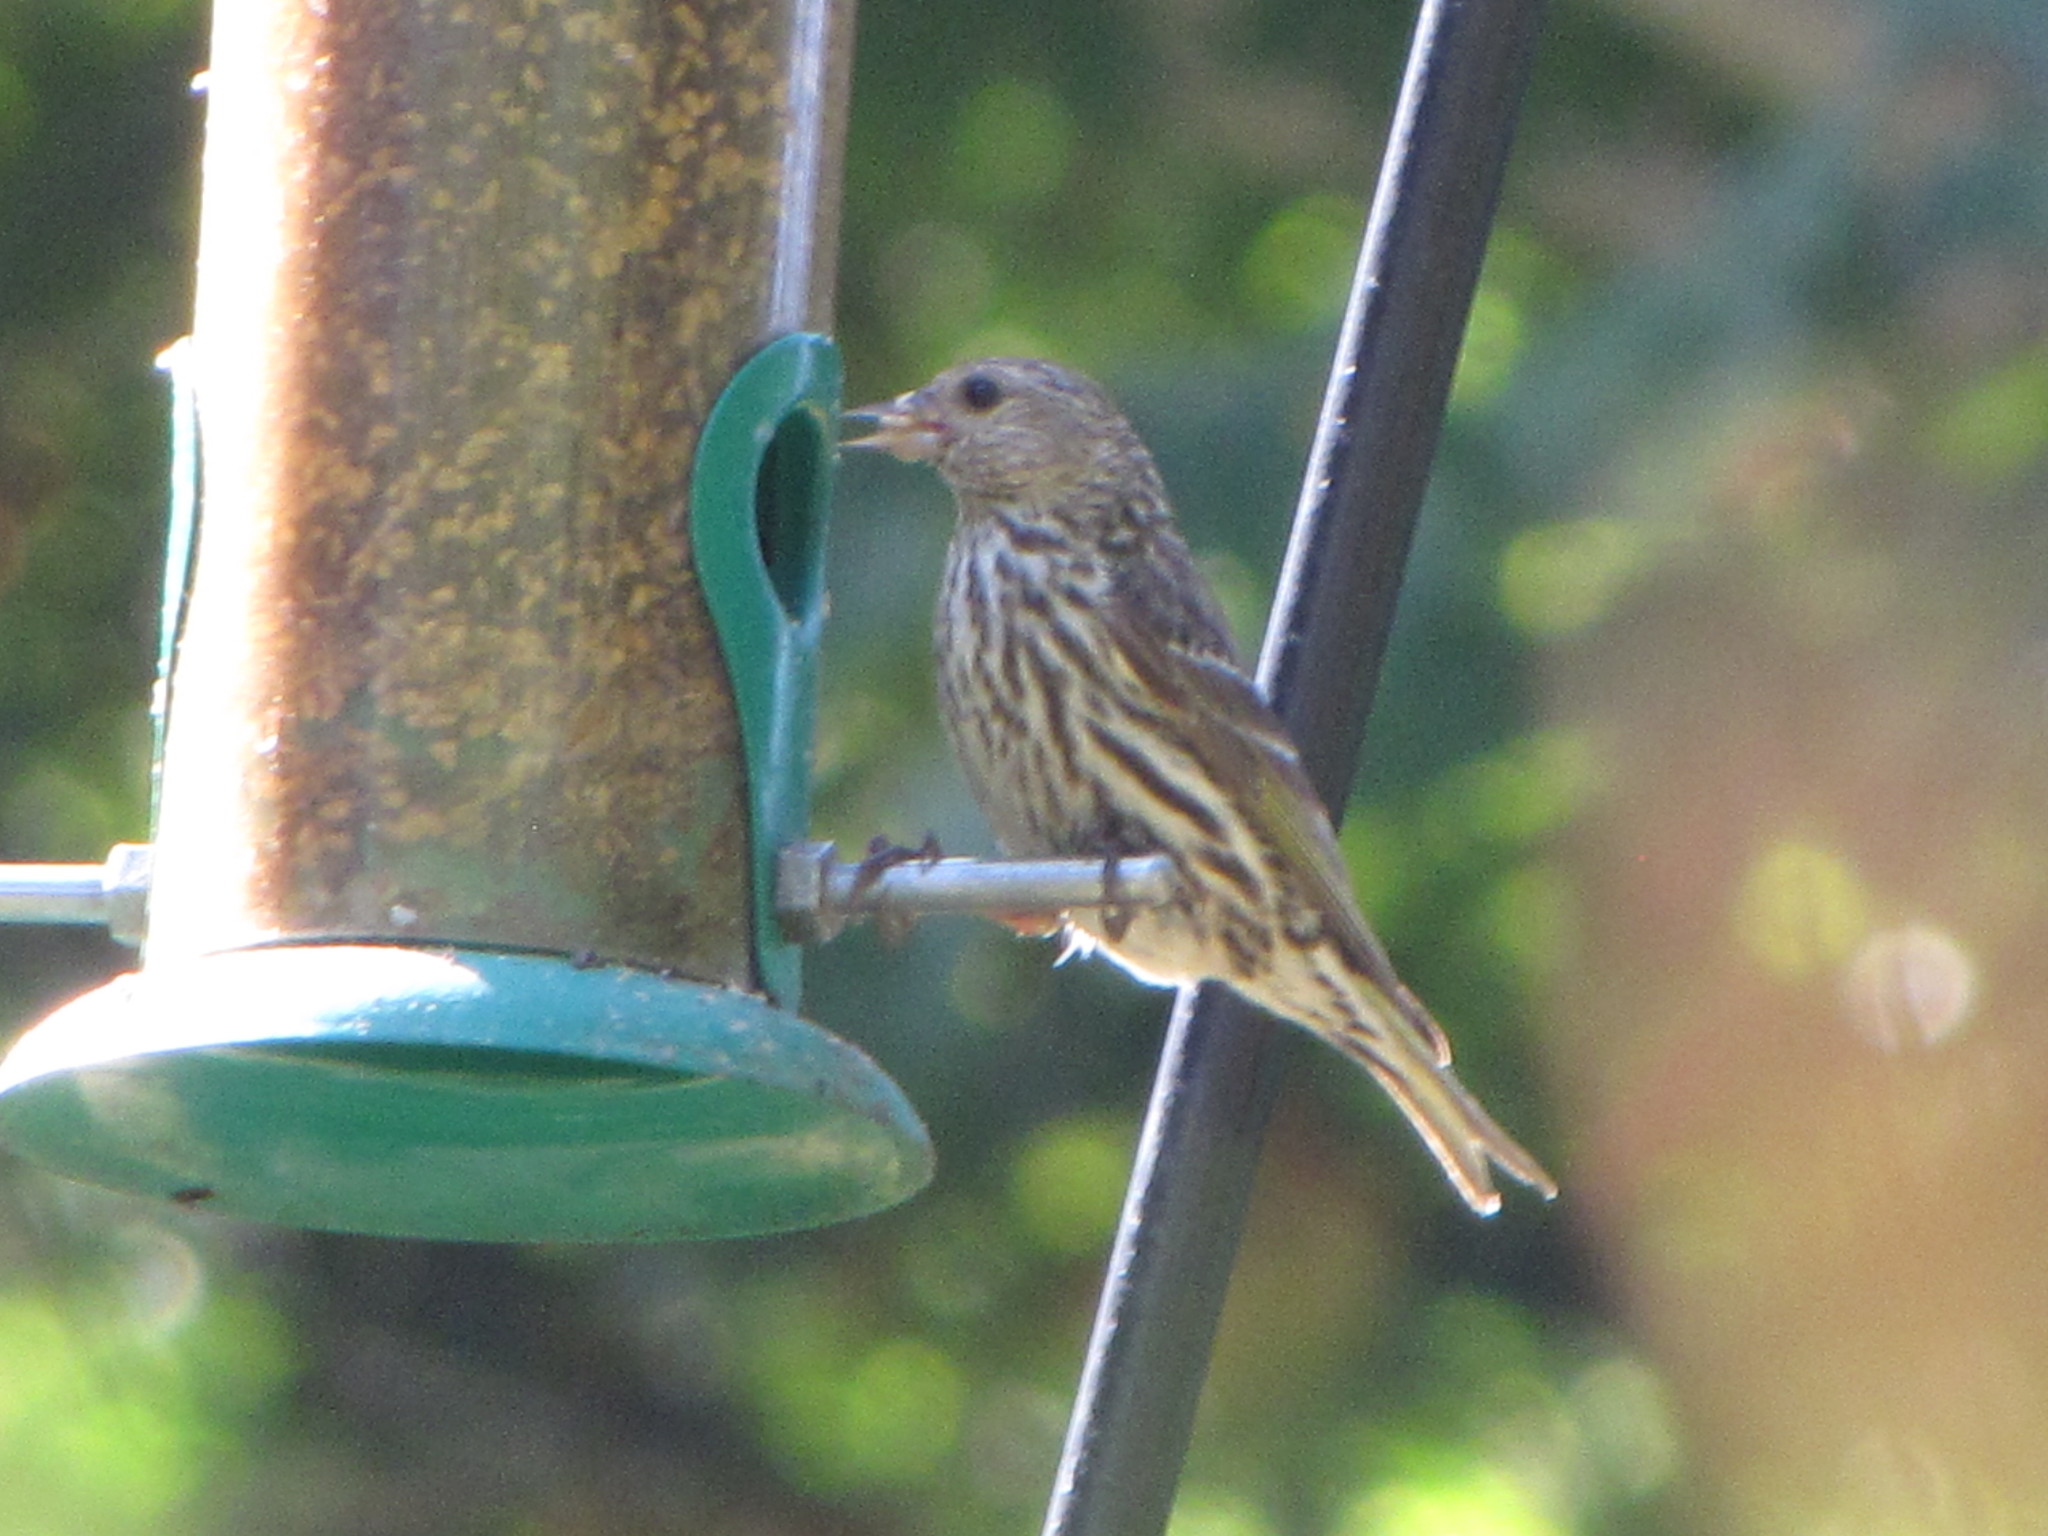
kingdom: Animalia
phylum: Chordata
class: Aves
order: Passeriformes
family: Fringillidae
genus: Spinus
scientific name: Spinus pinus
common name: Pine siskin
